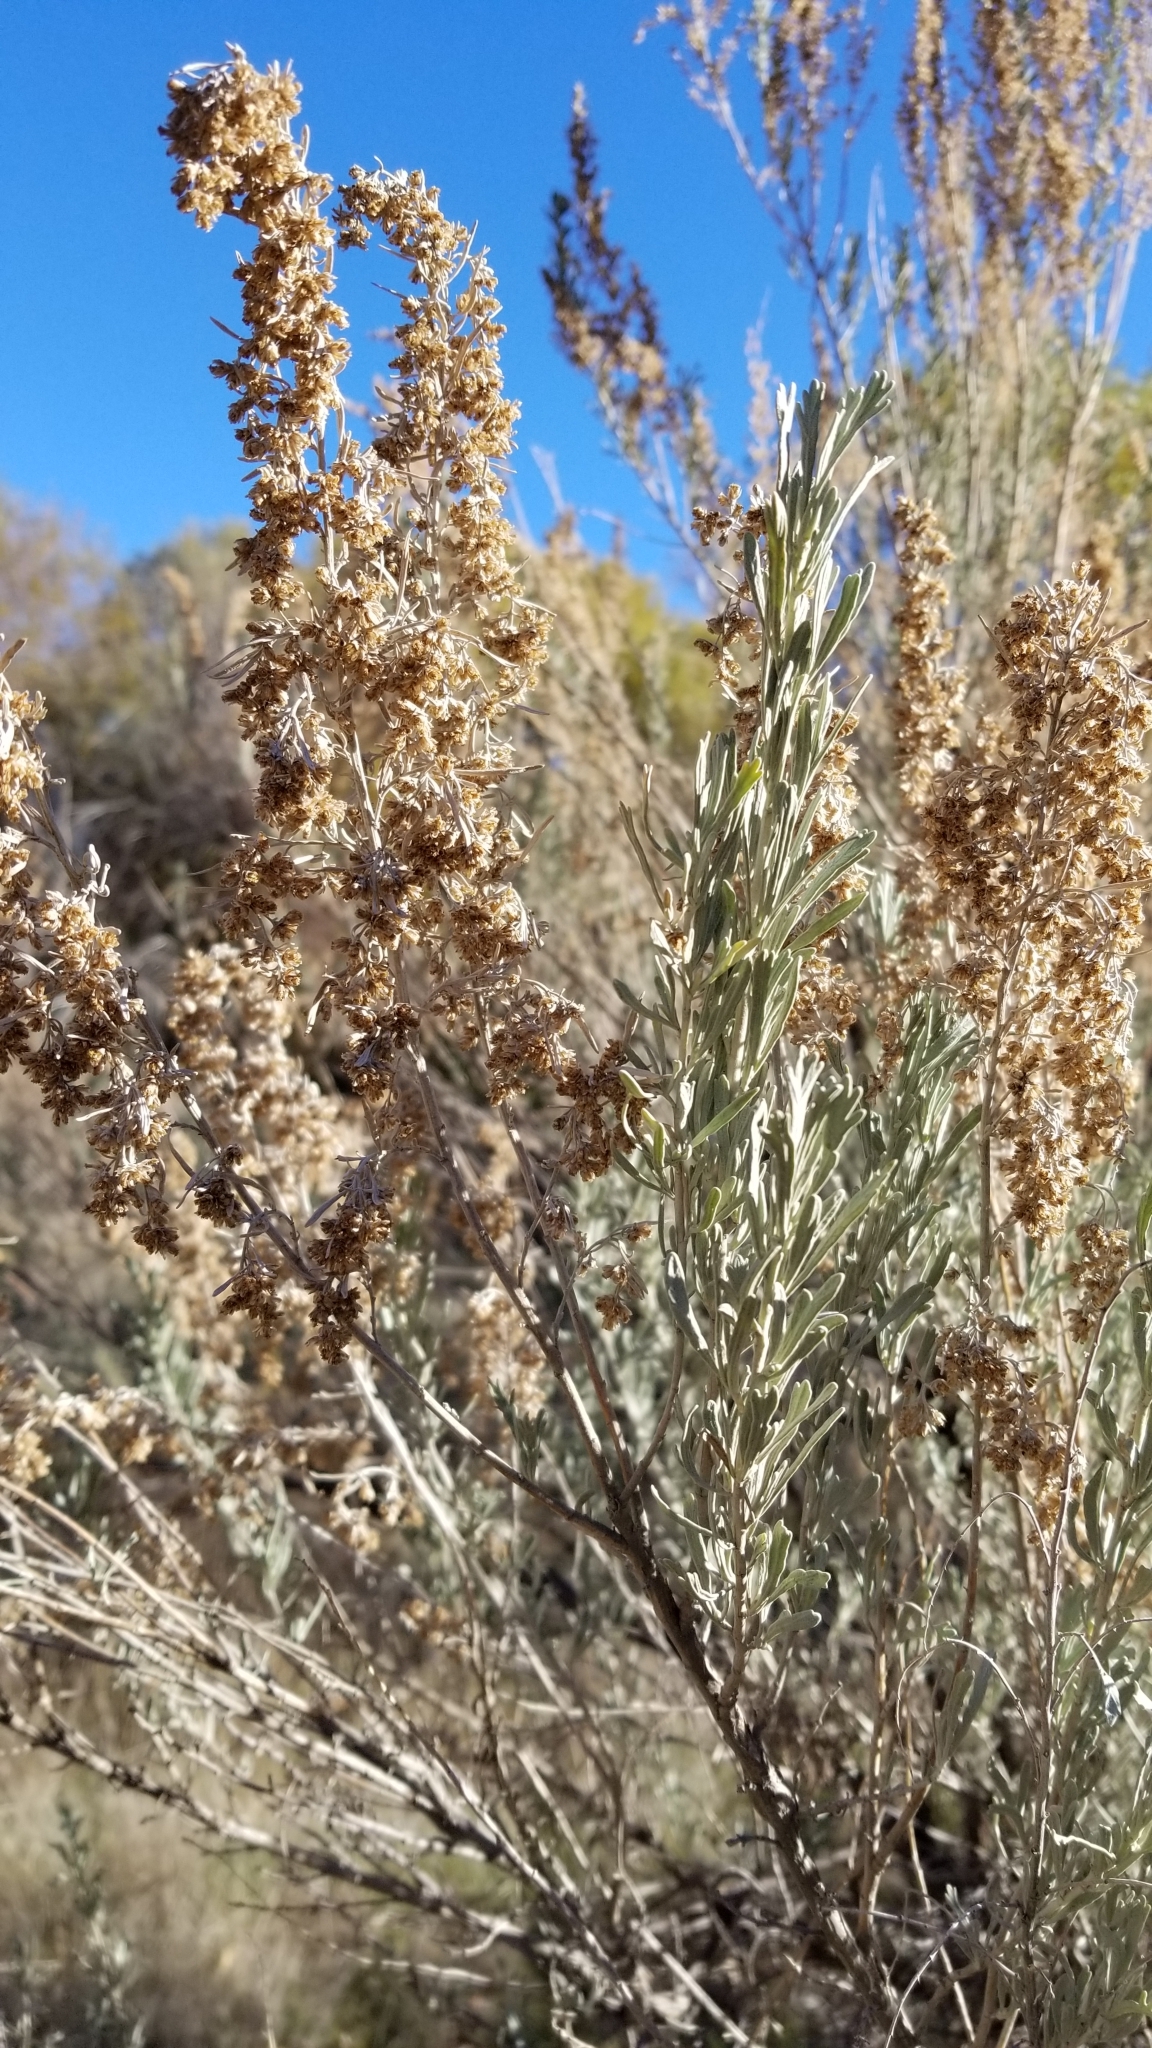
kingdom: Plantae
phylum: Tracheophyta
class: Magnoliopsida
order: Asterales
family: Asteraceae
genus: Artemisia
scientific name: Artemisia tridentata
